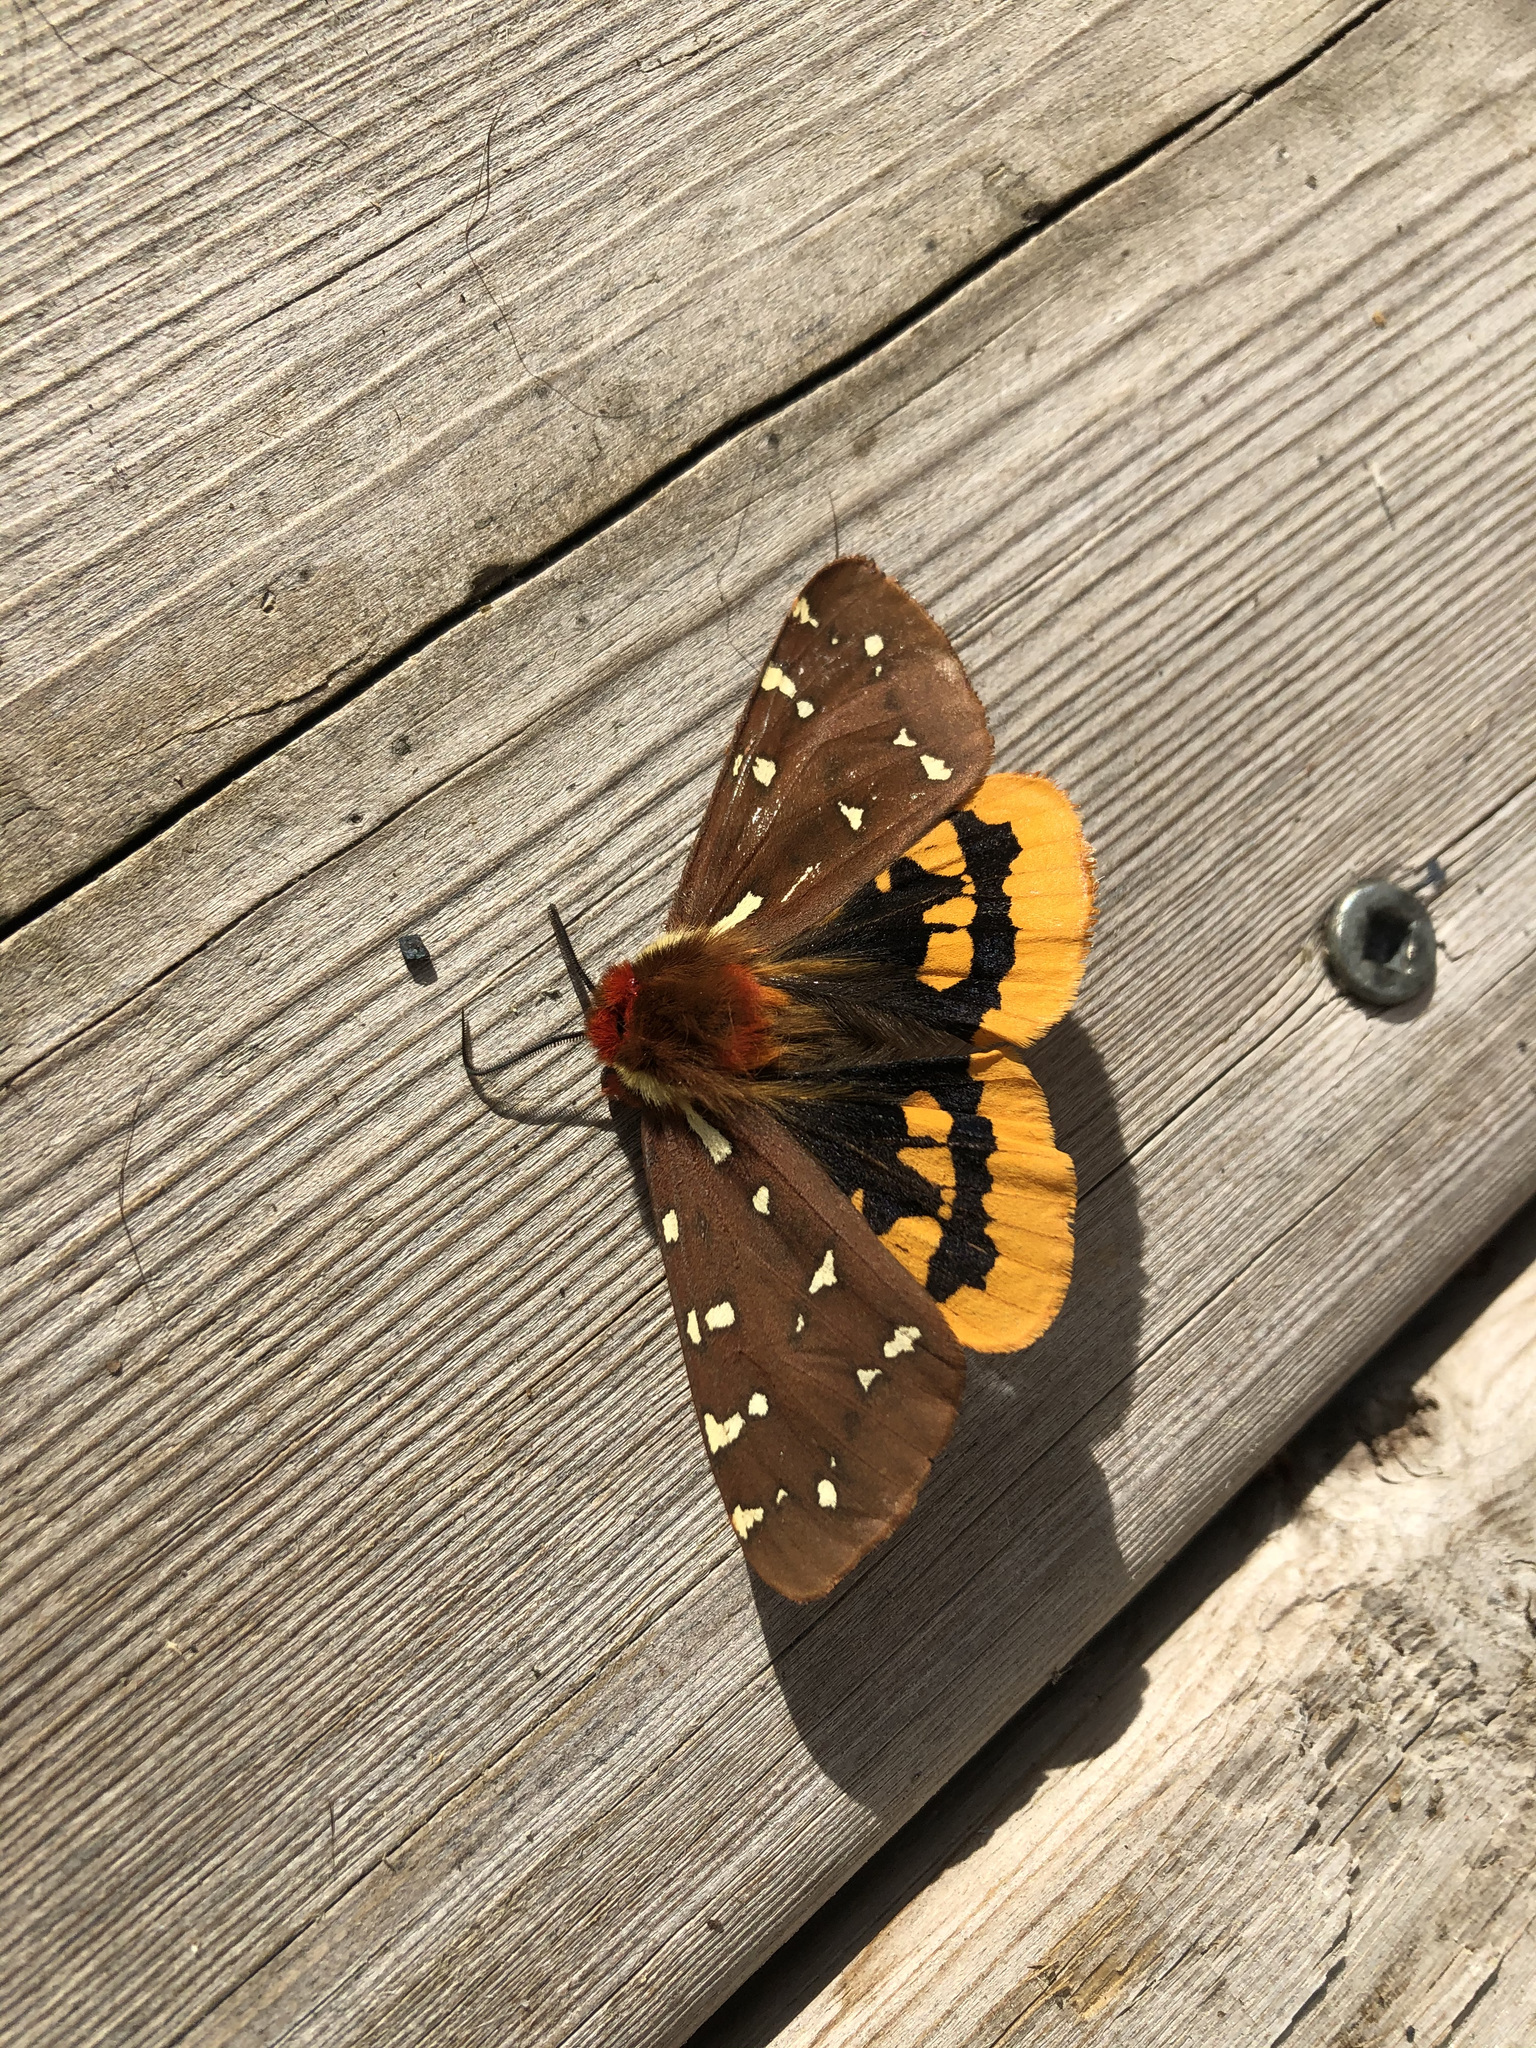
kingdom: Animalia
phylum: Arthropoda
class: Insecta
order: Lepidoptera
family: Erebidae
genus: Arctia
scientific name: Arctia parthenos
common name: St. lawrence tiger moth
